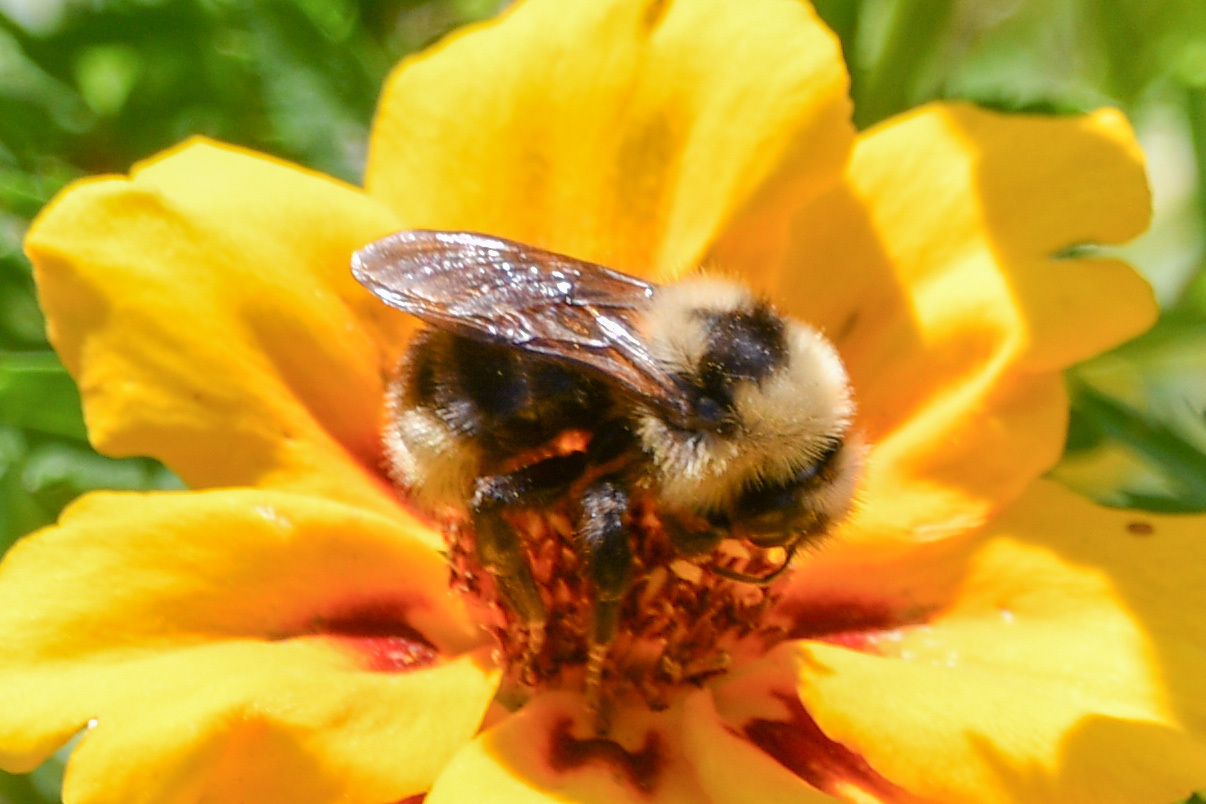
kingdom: Animalia
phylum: Arthropoda
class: Insecta
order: Hymenoptera
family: Apidae
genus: Bombus
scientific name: Bombus insularis
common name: Indiscriminate cuckoo bumble bee
